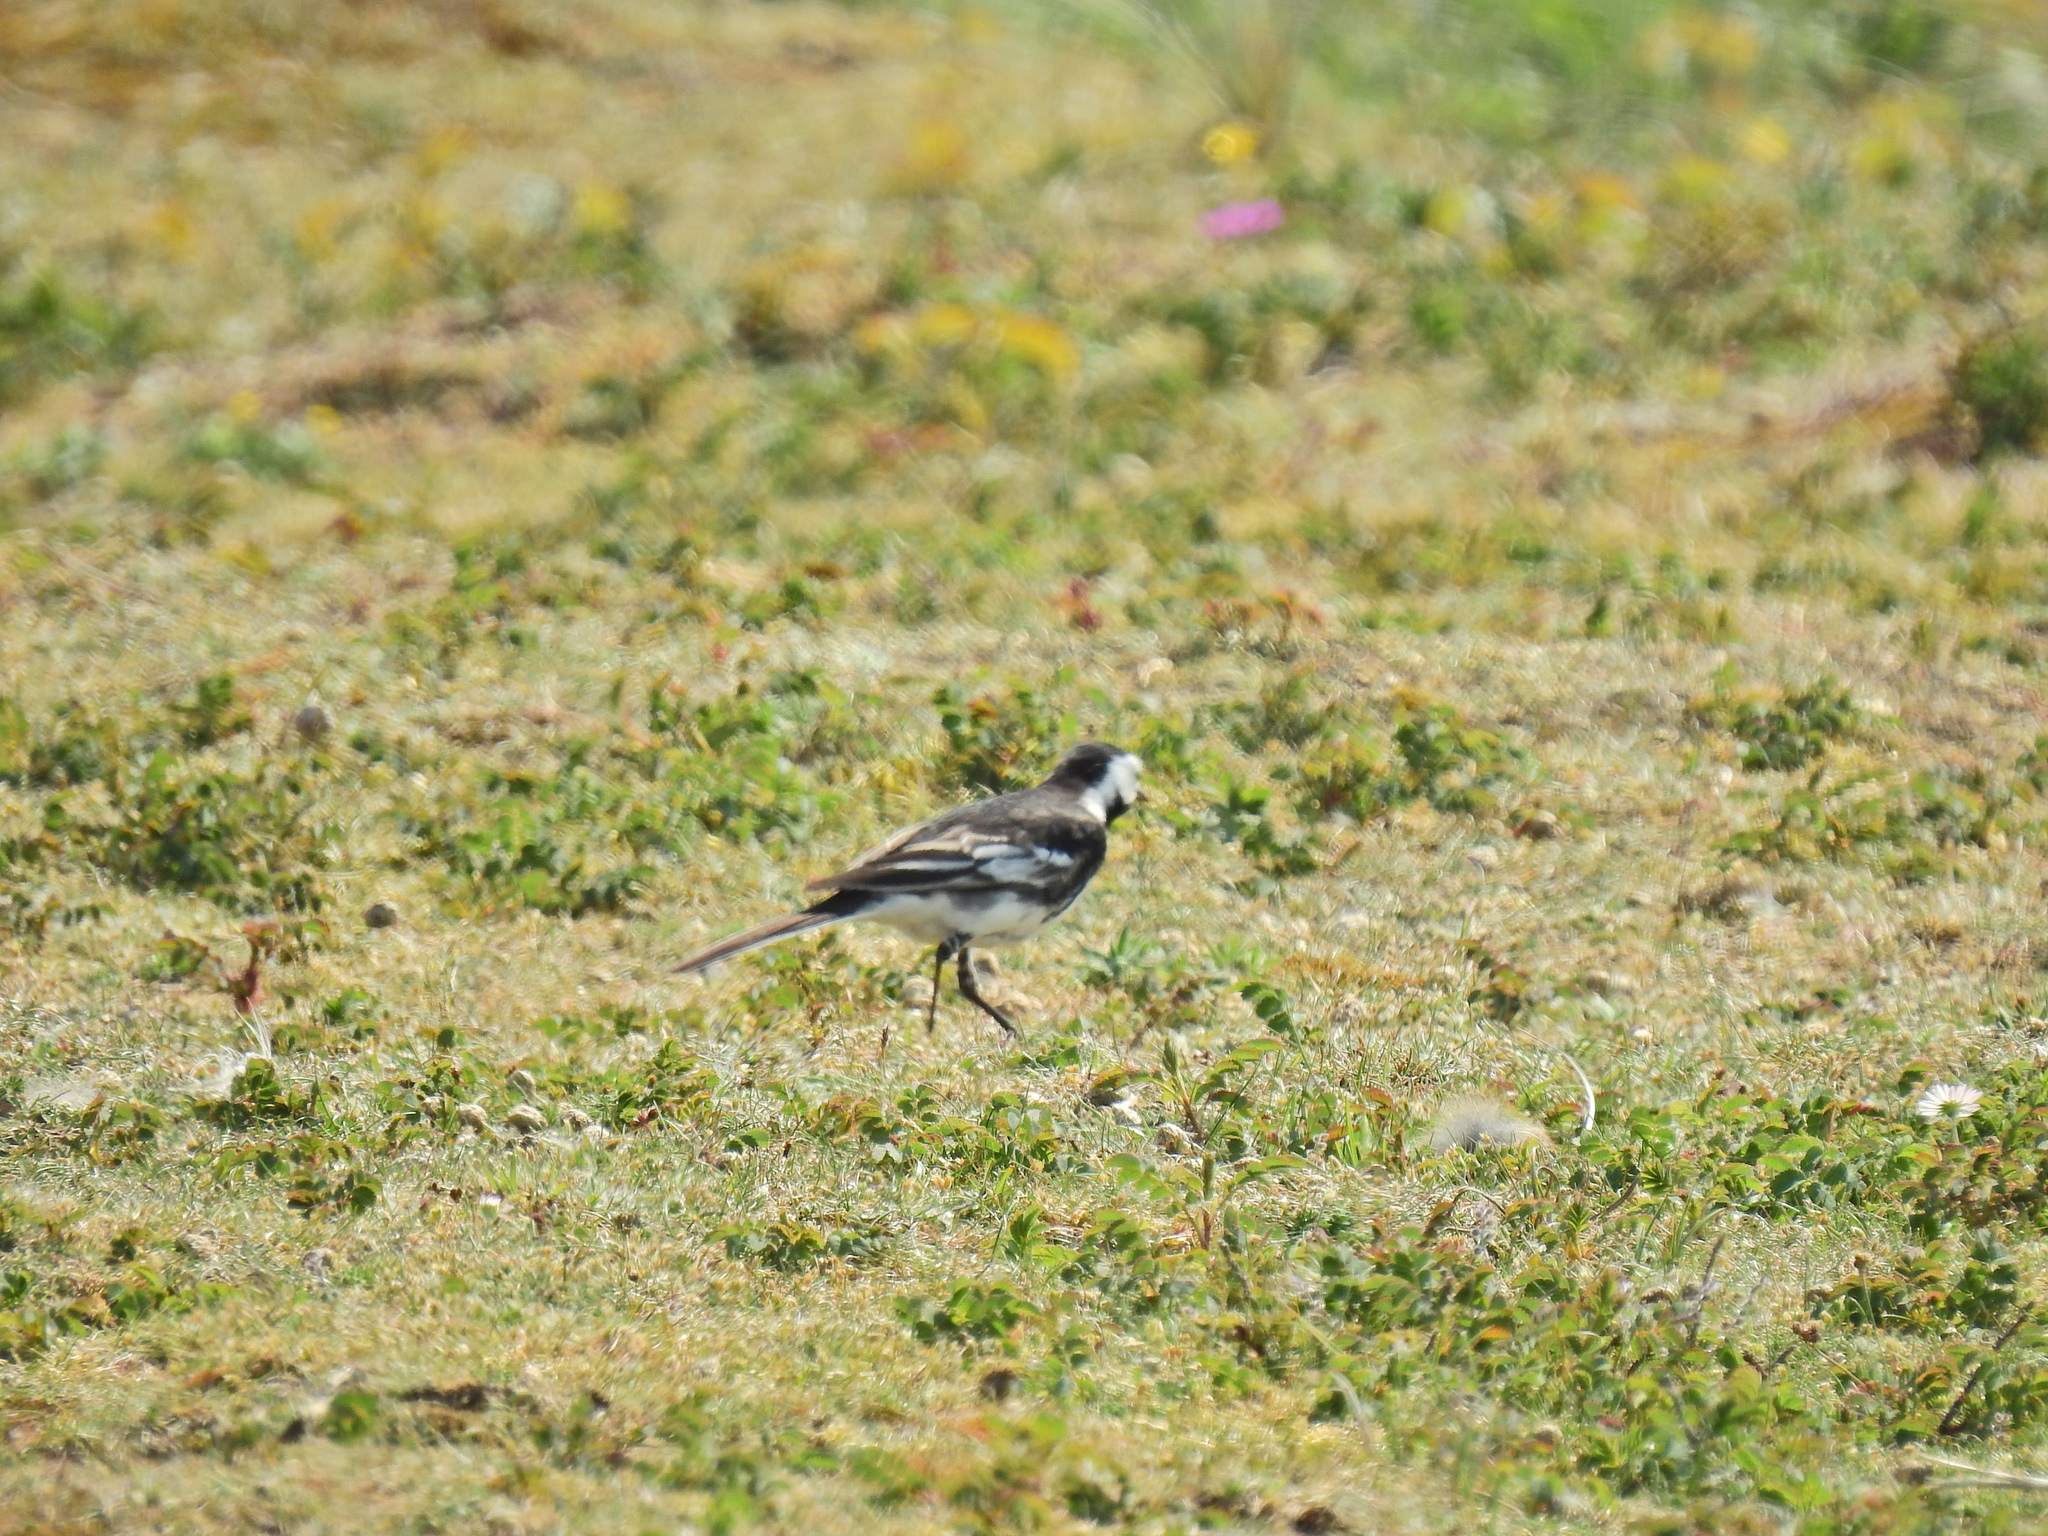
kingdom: Animalia
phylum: Chordata
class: Aves
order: Passeriformes
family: Motacillidae
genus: Motacilla
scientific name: Motacilla alba
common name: White wagtail
